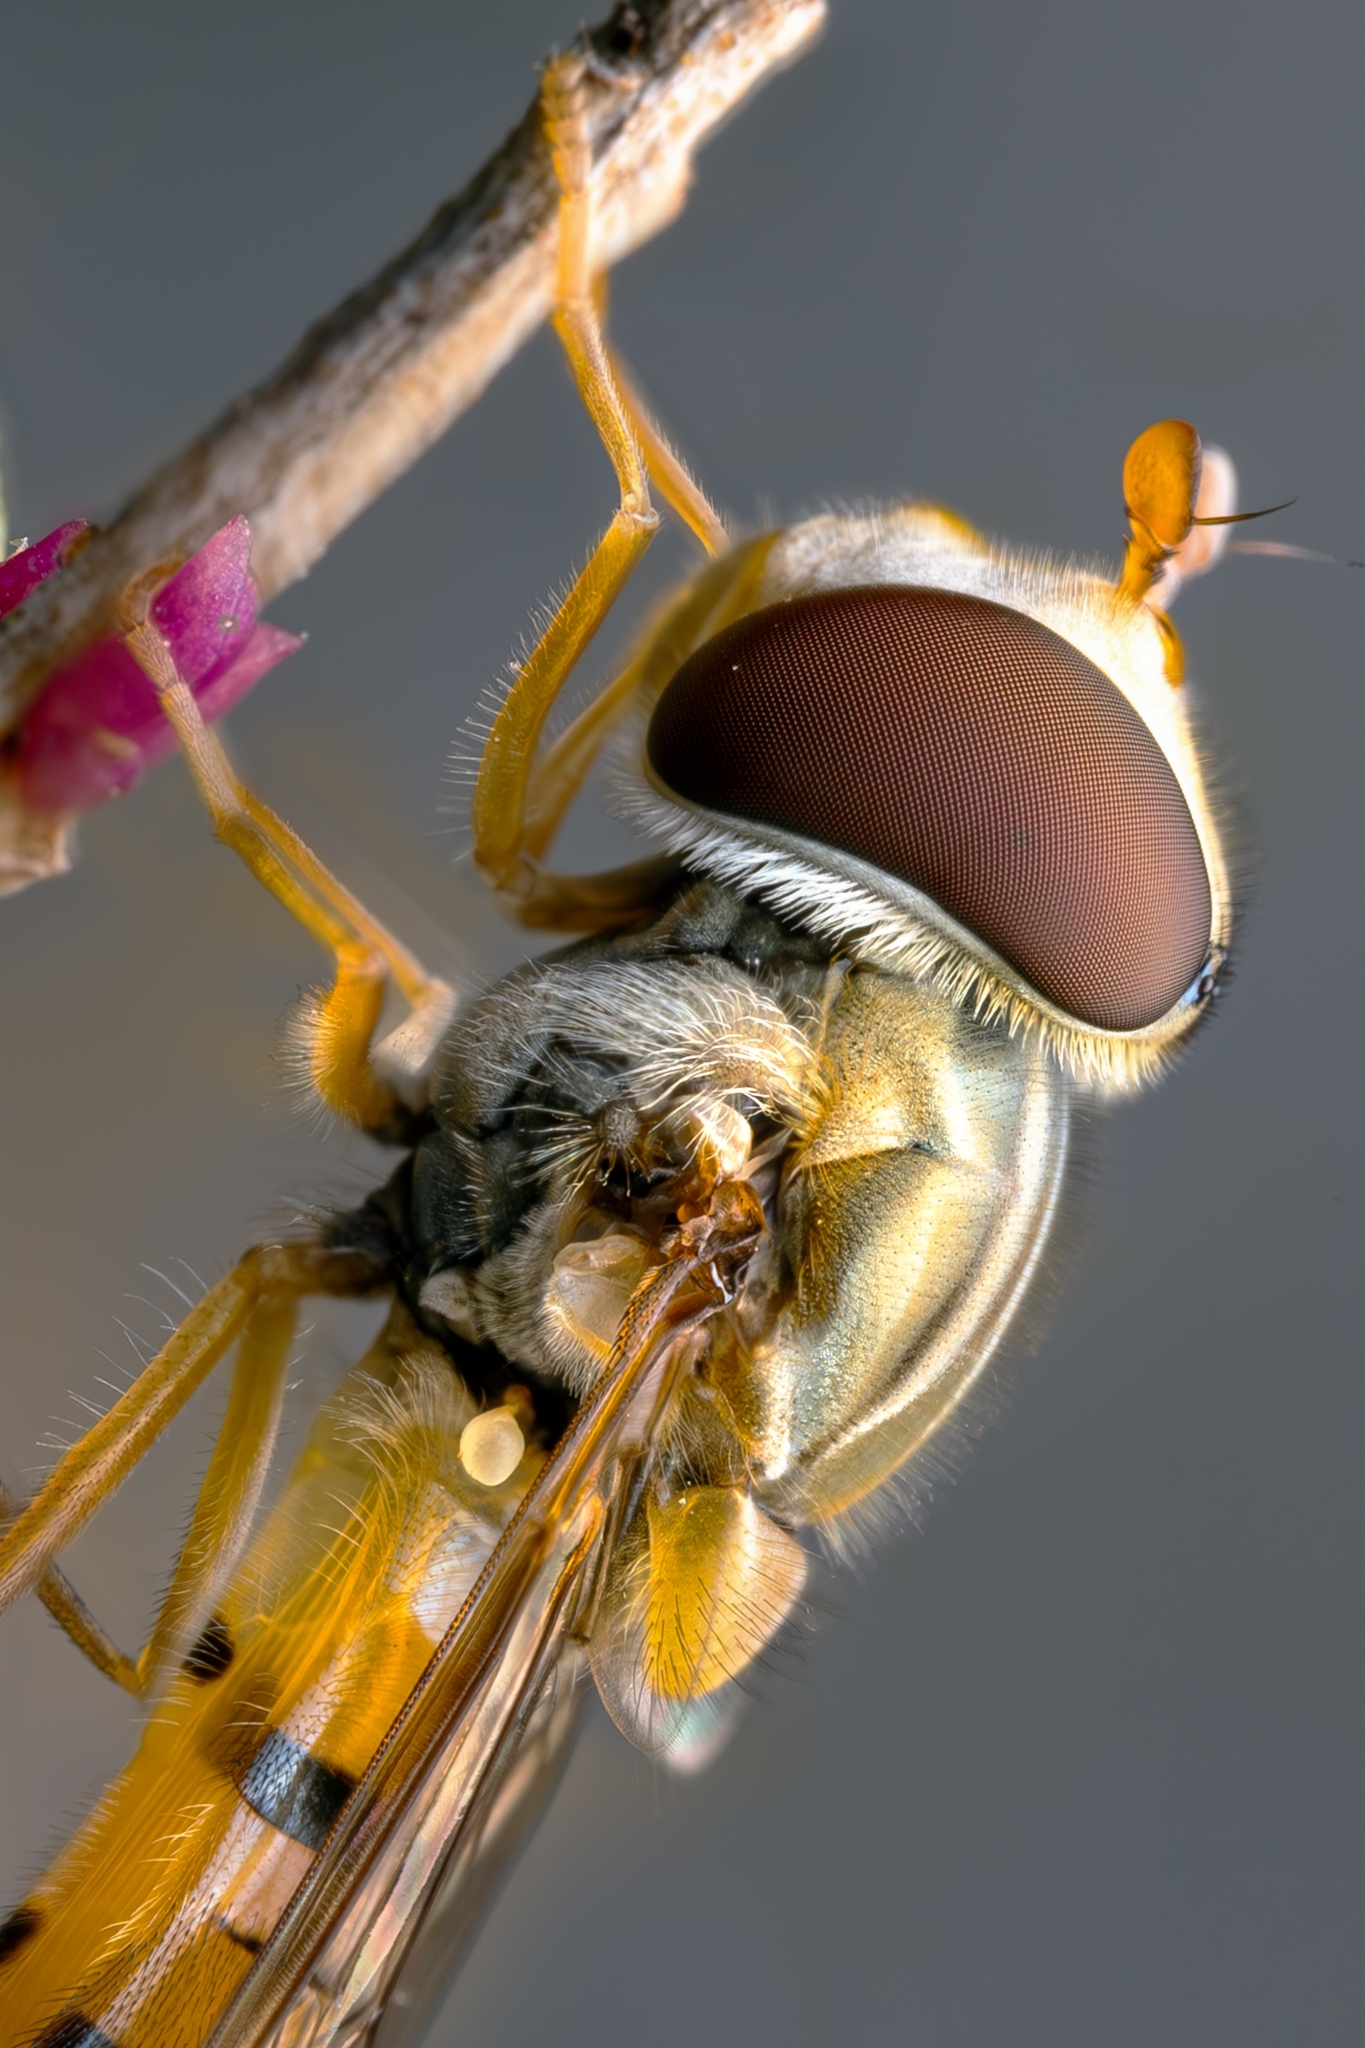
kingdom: Animalia
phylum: Arthropoda
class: Insecta
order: Diptera
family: Syrphidae
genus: Episyrphus
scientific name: Episyrphus balteatus
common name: Marmalade hoverfly
